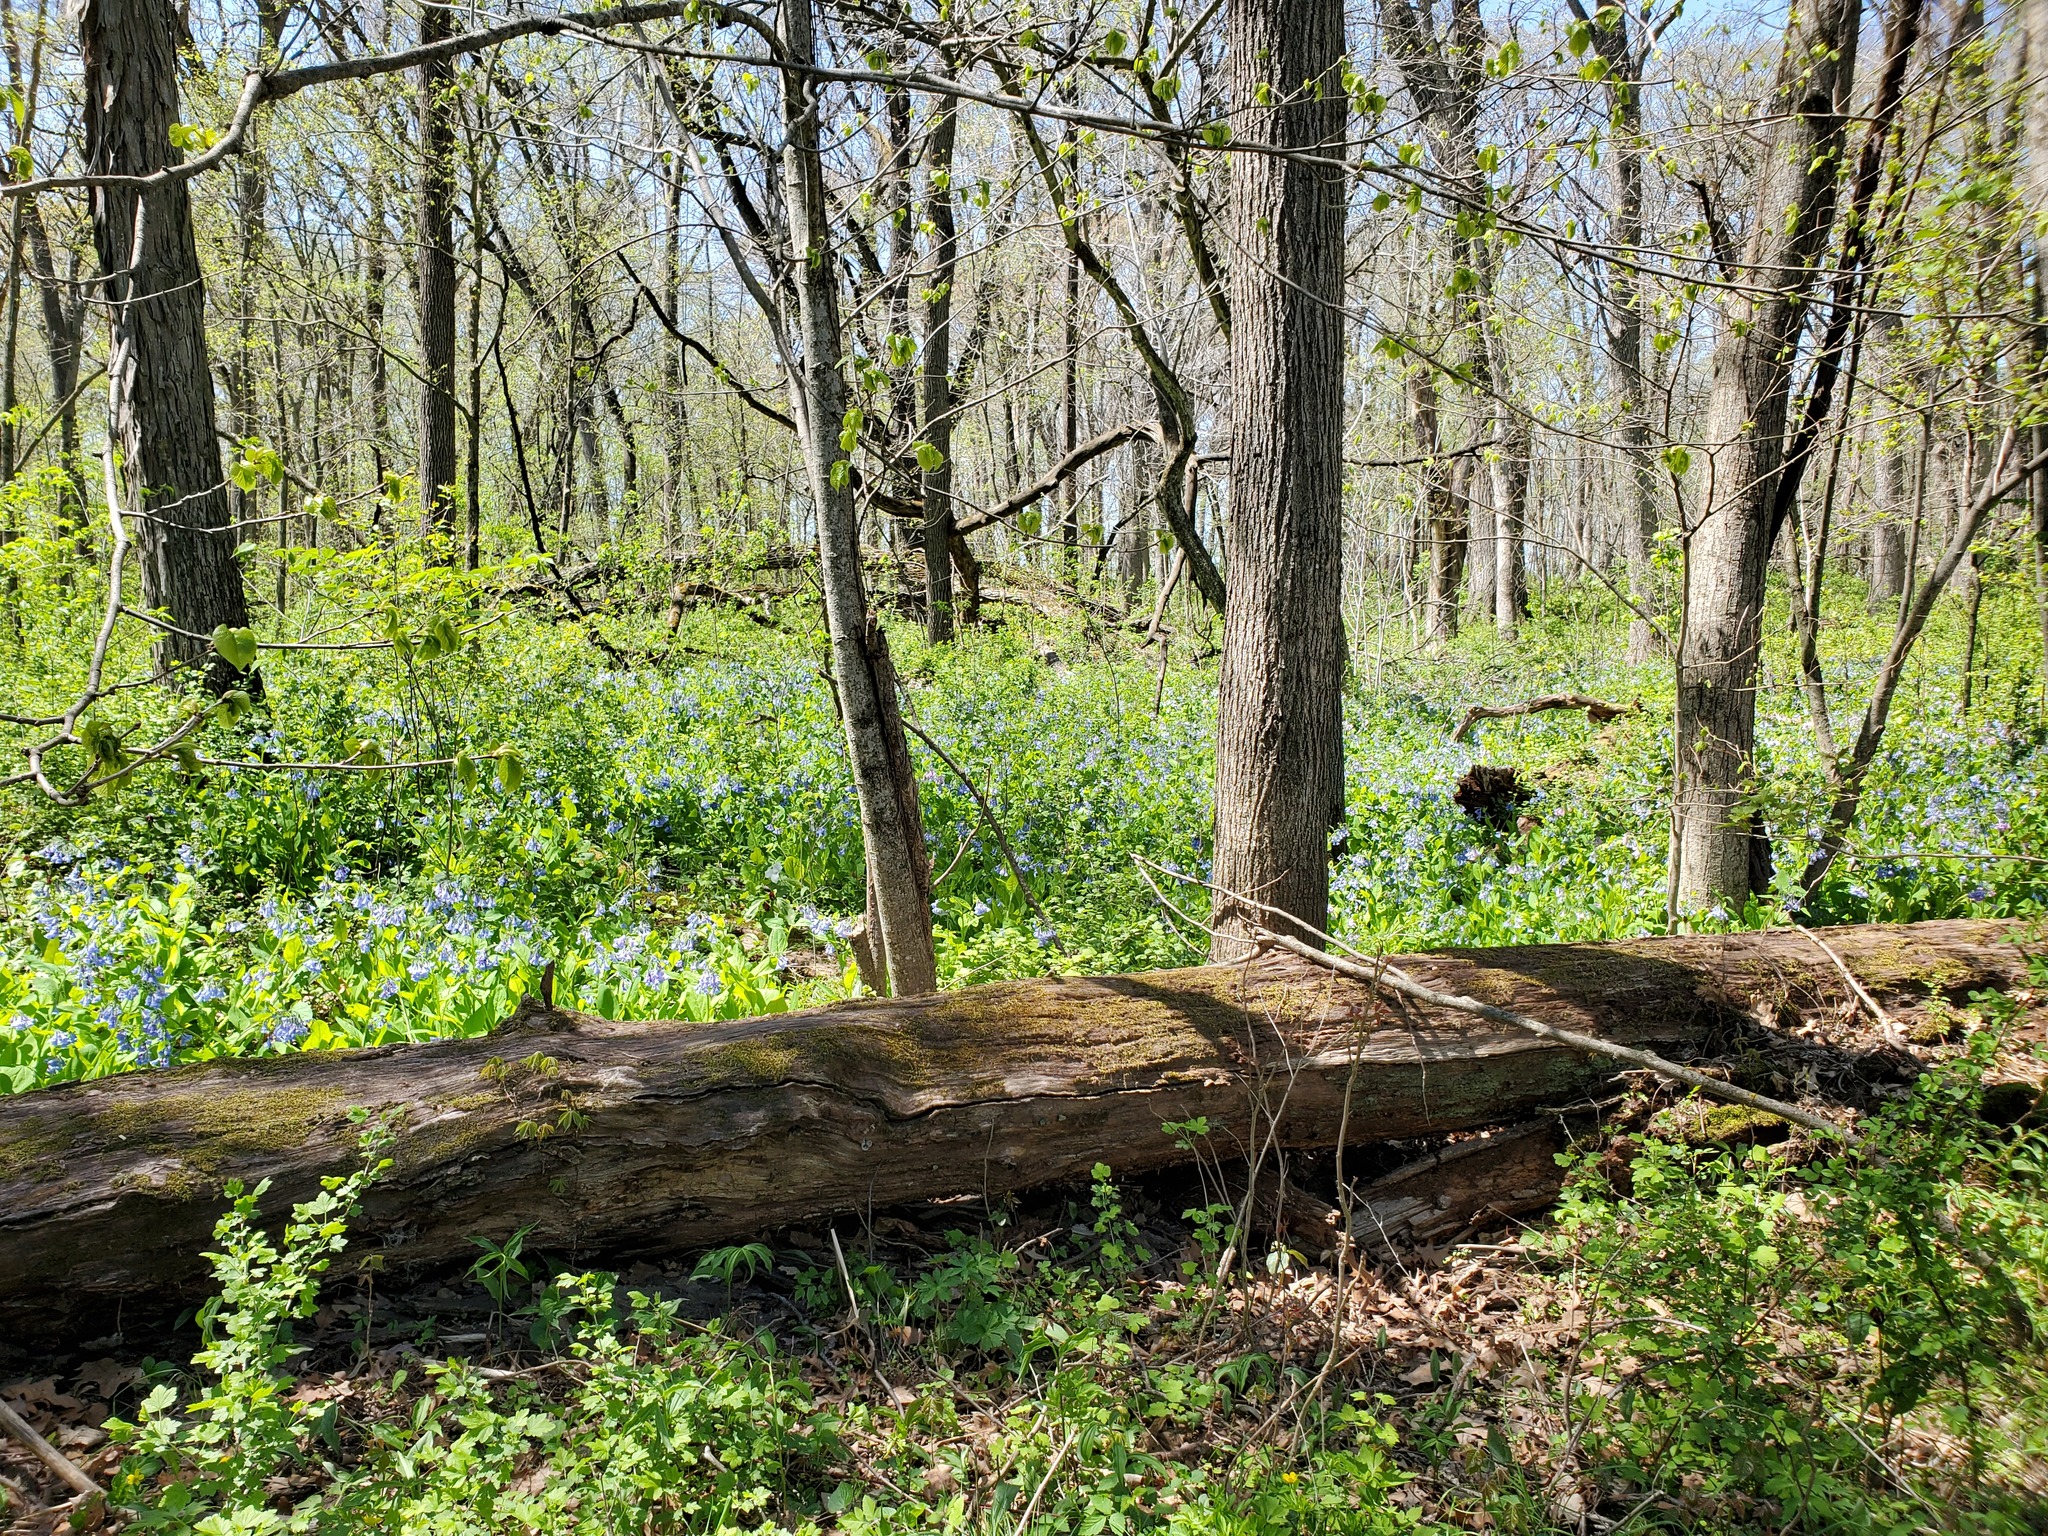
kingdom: Plantae
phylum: Tracheophyta
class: Magnoliopsida
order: Boraginales
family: Boraginaceae
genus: Mertensia
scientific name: Mertensia virginica
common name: Virginia bluebells
